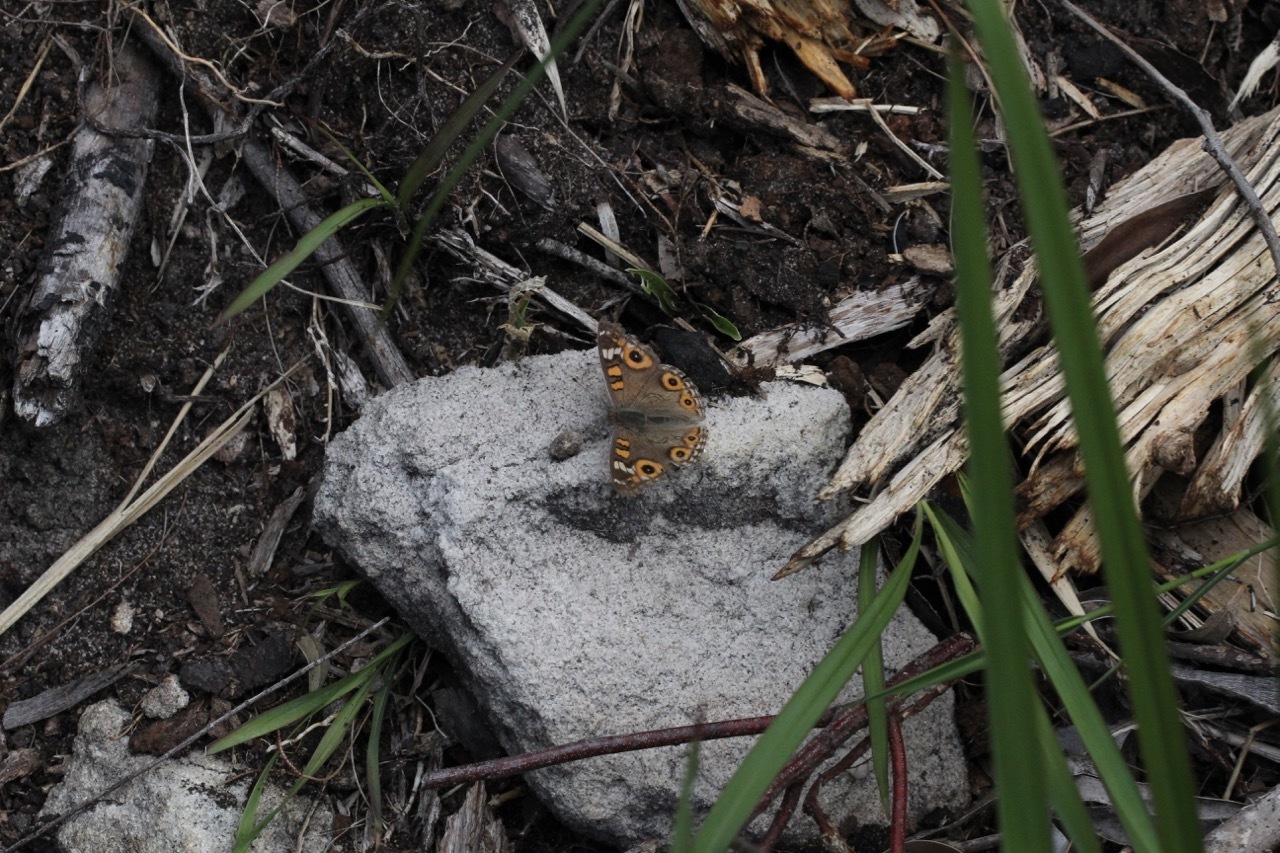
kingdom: Animalia
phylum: Arthropoda
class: Insecta
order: Lepidoptera
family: Nymphalidae
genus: Junonia
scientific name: Junonia villida
